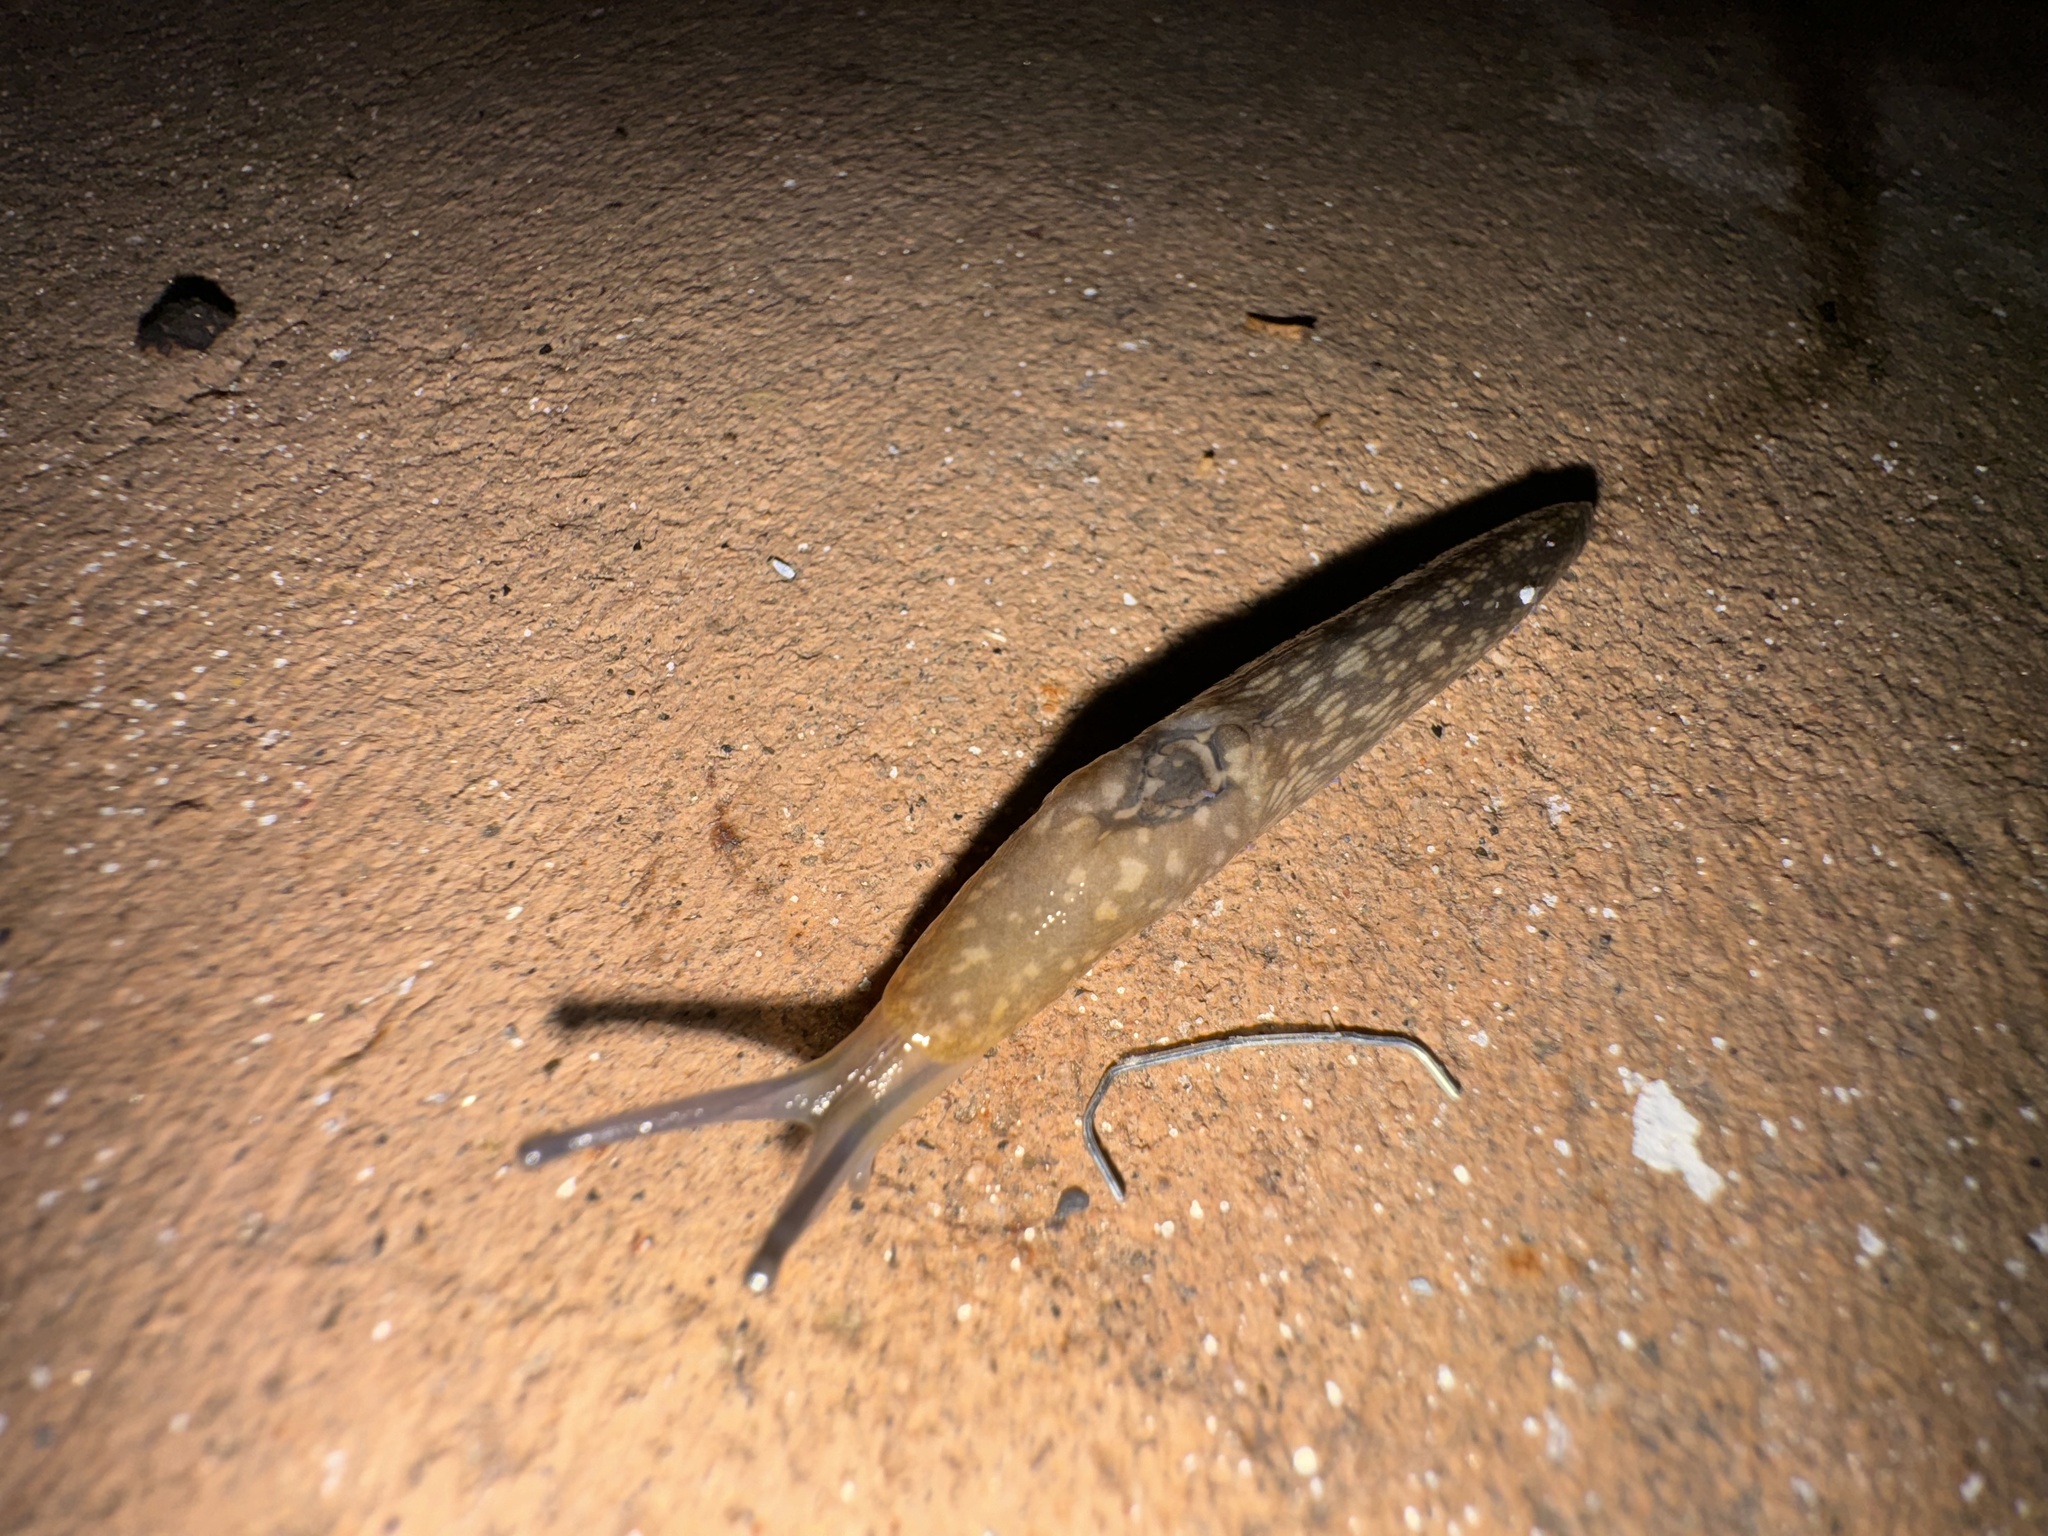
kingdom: Animalia
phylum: Mollusca
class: Gastropoda
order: Stylommatophora
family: Limacidae
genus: Limacus
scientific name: Limacus flavus
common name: Yellow gardenslug
